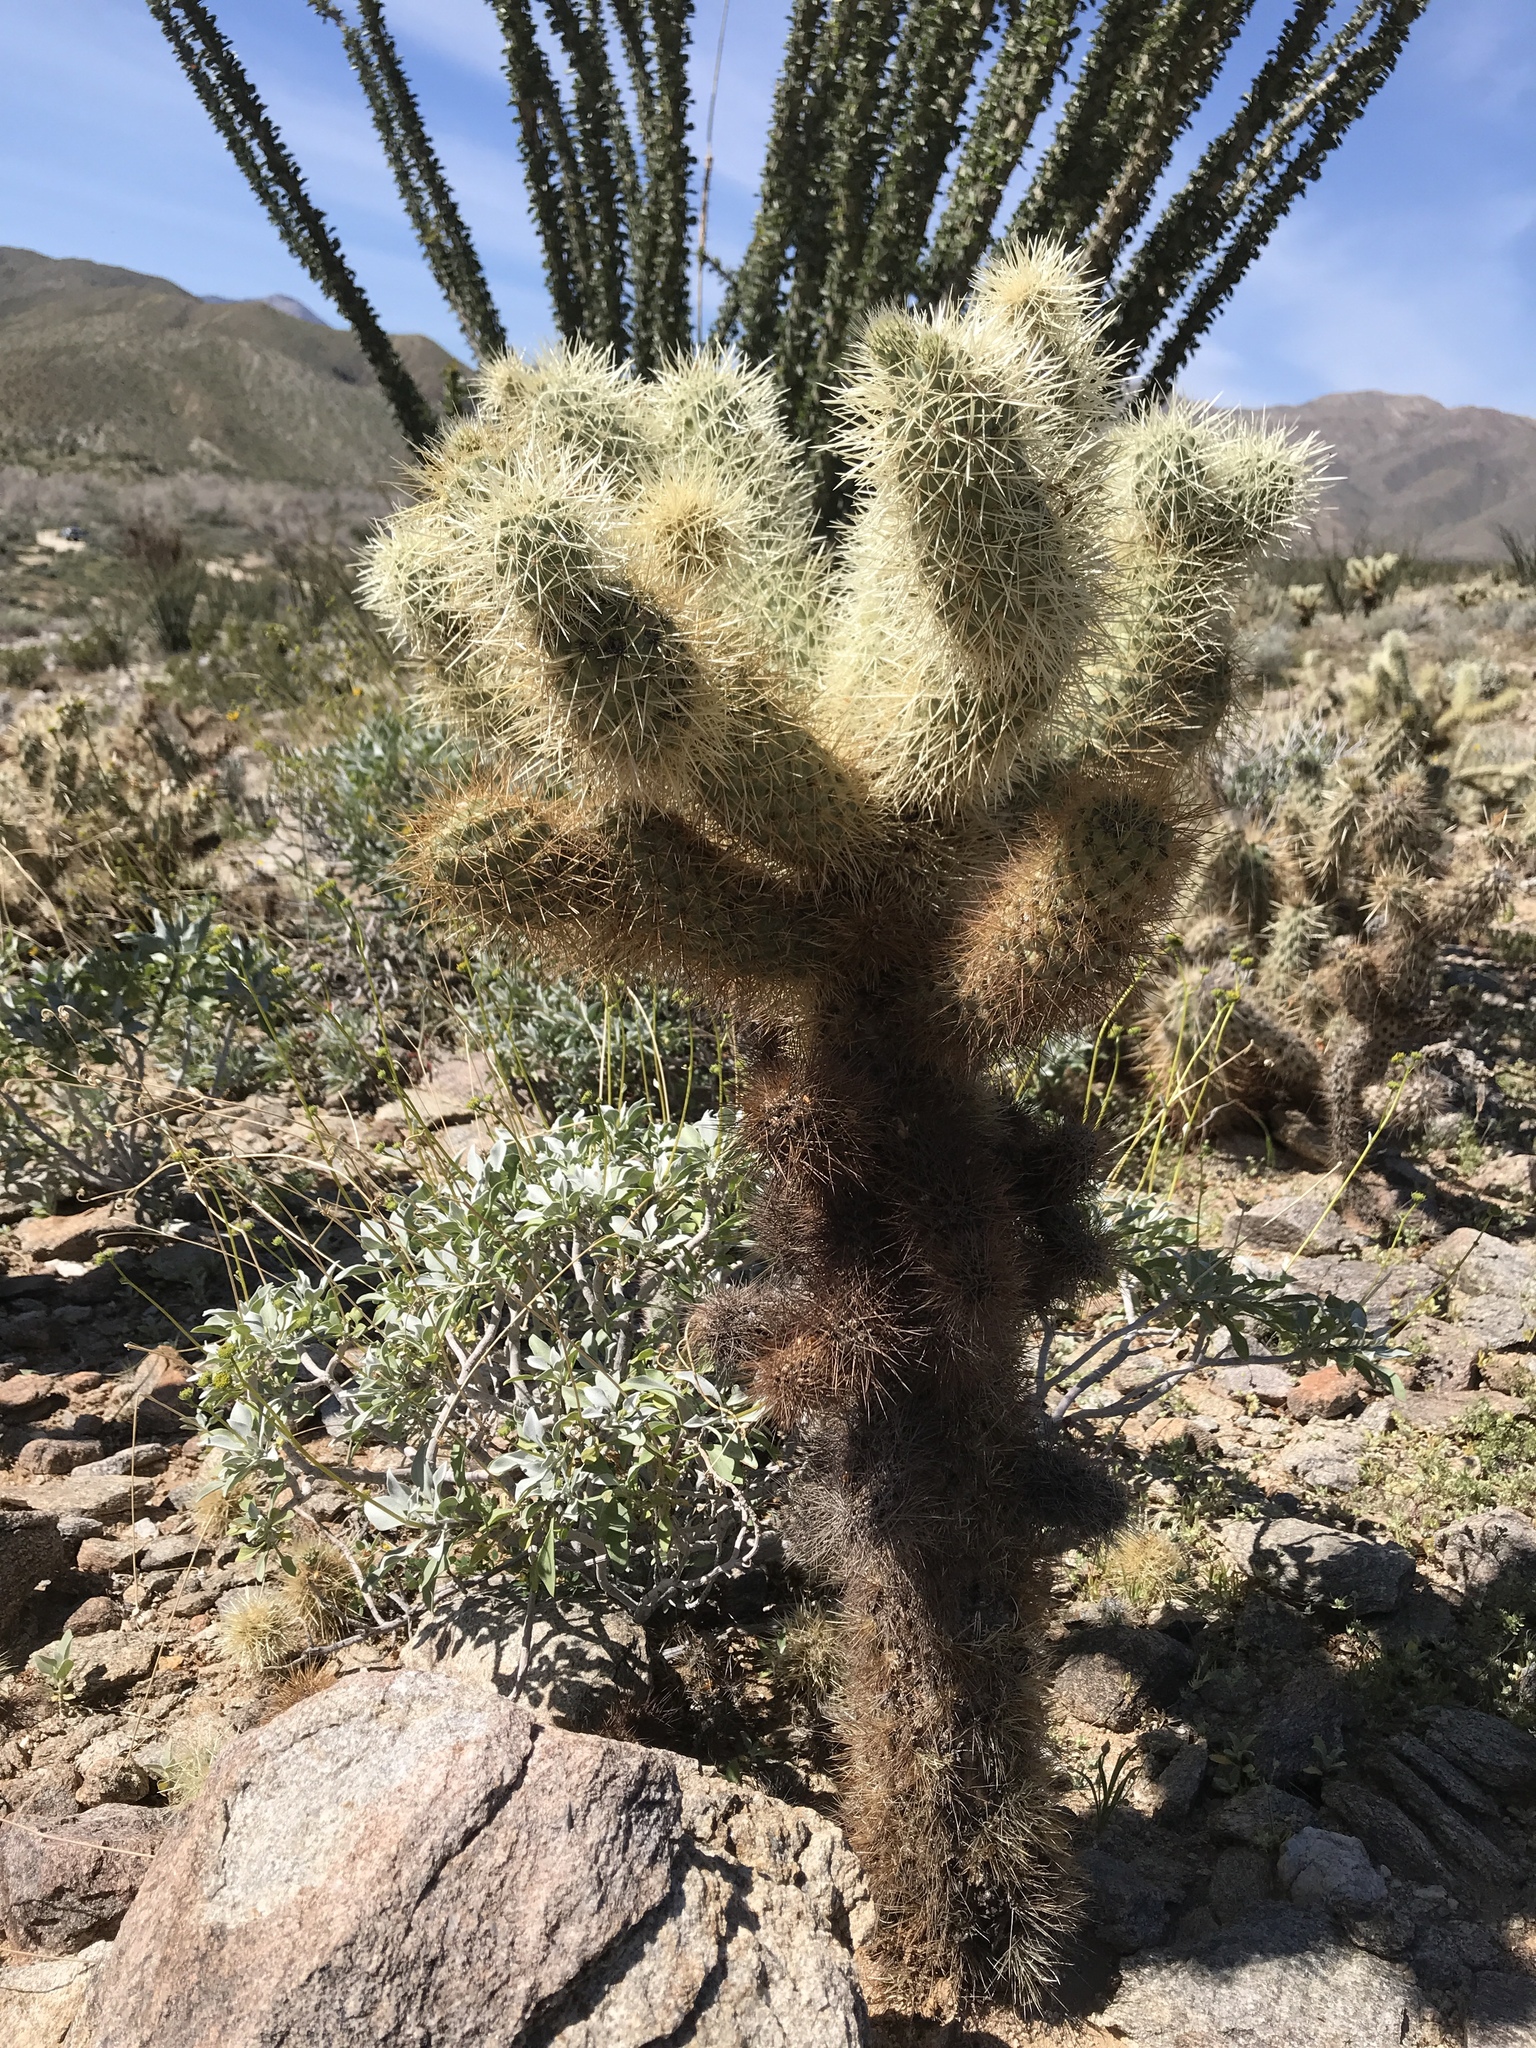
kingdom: Plantae
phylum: Tracheophyta
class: Magnoliopsida
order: Caryophyllales
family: Cactaceae
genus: Cylindropuntia
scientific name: Cylindropuntia fosbergii
